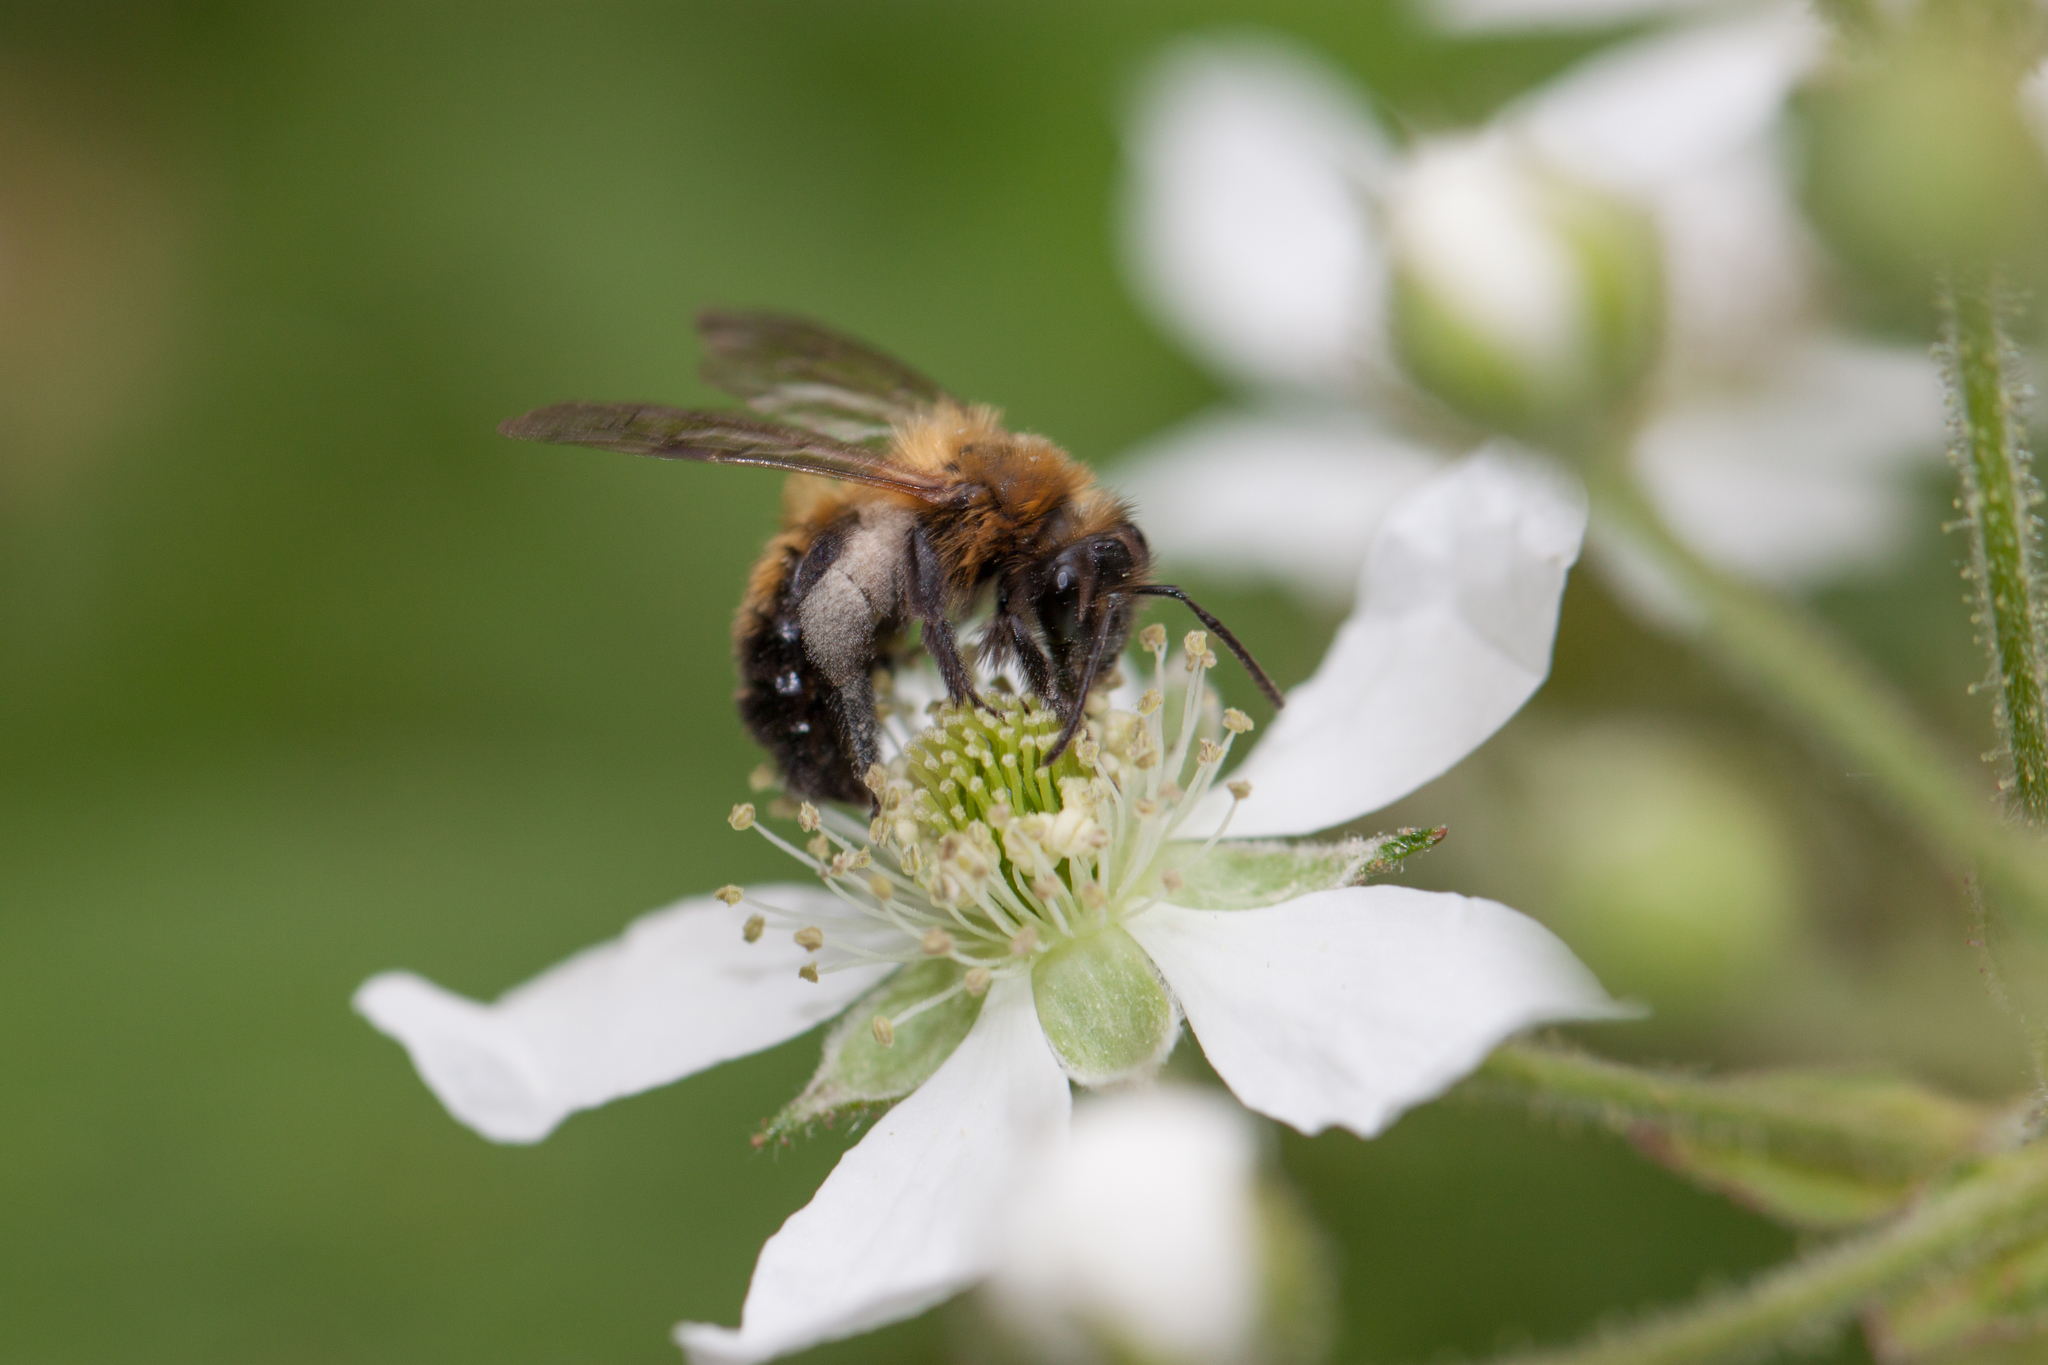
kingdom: Animalia
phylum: Arthropoda
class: Insecta
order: Hymenoptera
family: Andrenidae
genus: Andrena
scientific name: Andrena milwaukeensis
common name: Milwaukee mining bee
